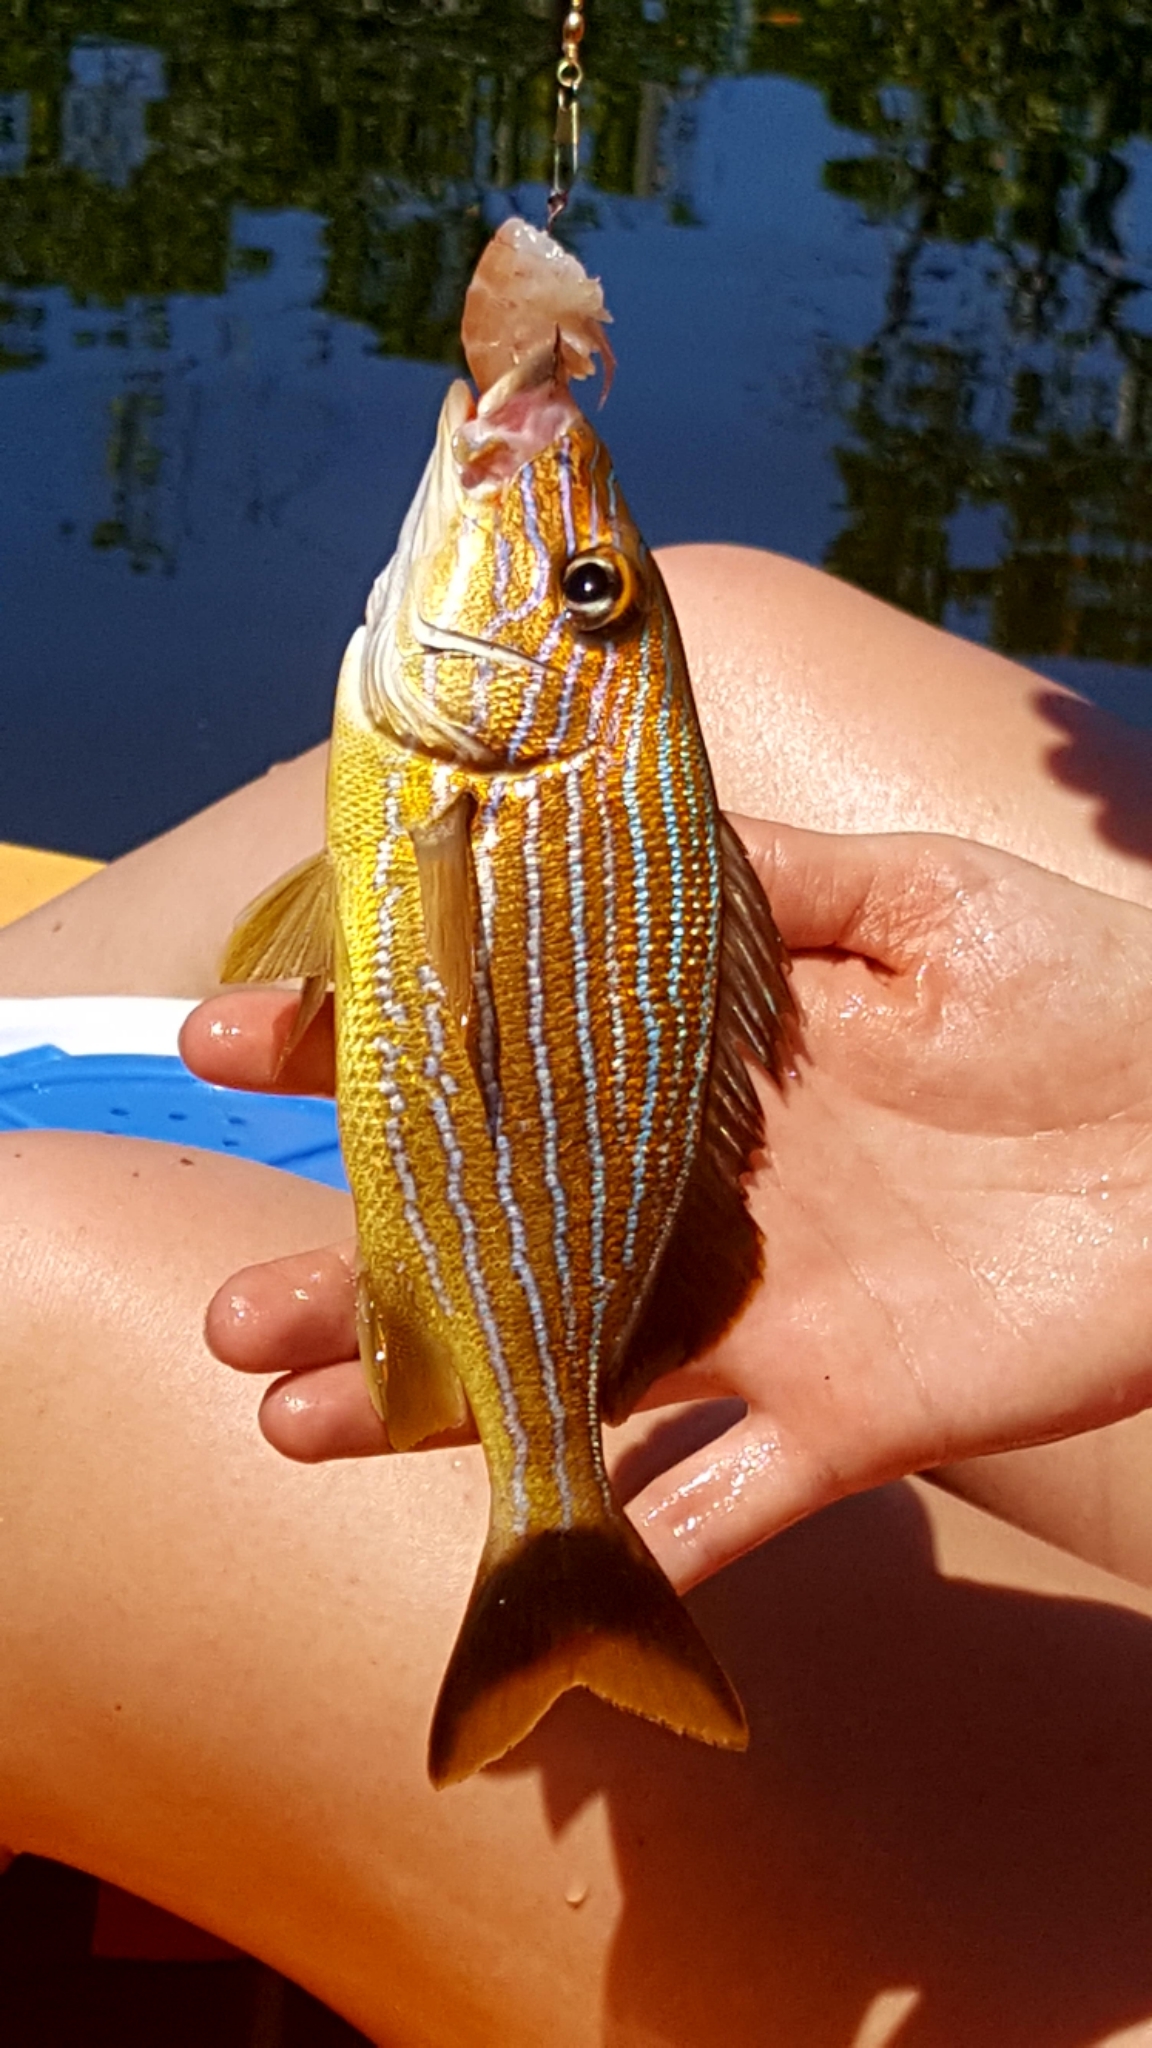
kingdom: Animalia
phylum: Chordata
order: Perciformes
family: Haemulidae
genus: Haemulon
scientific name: Haemulon sciurus
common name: Bluestriped grunt
